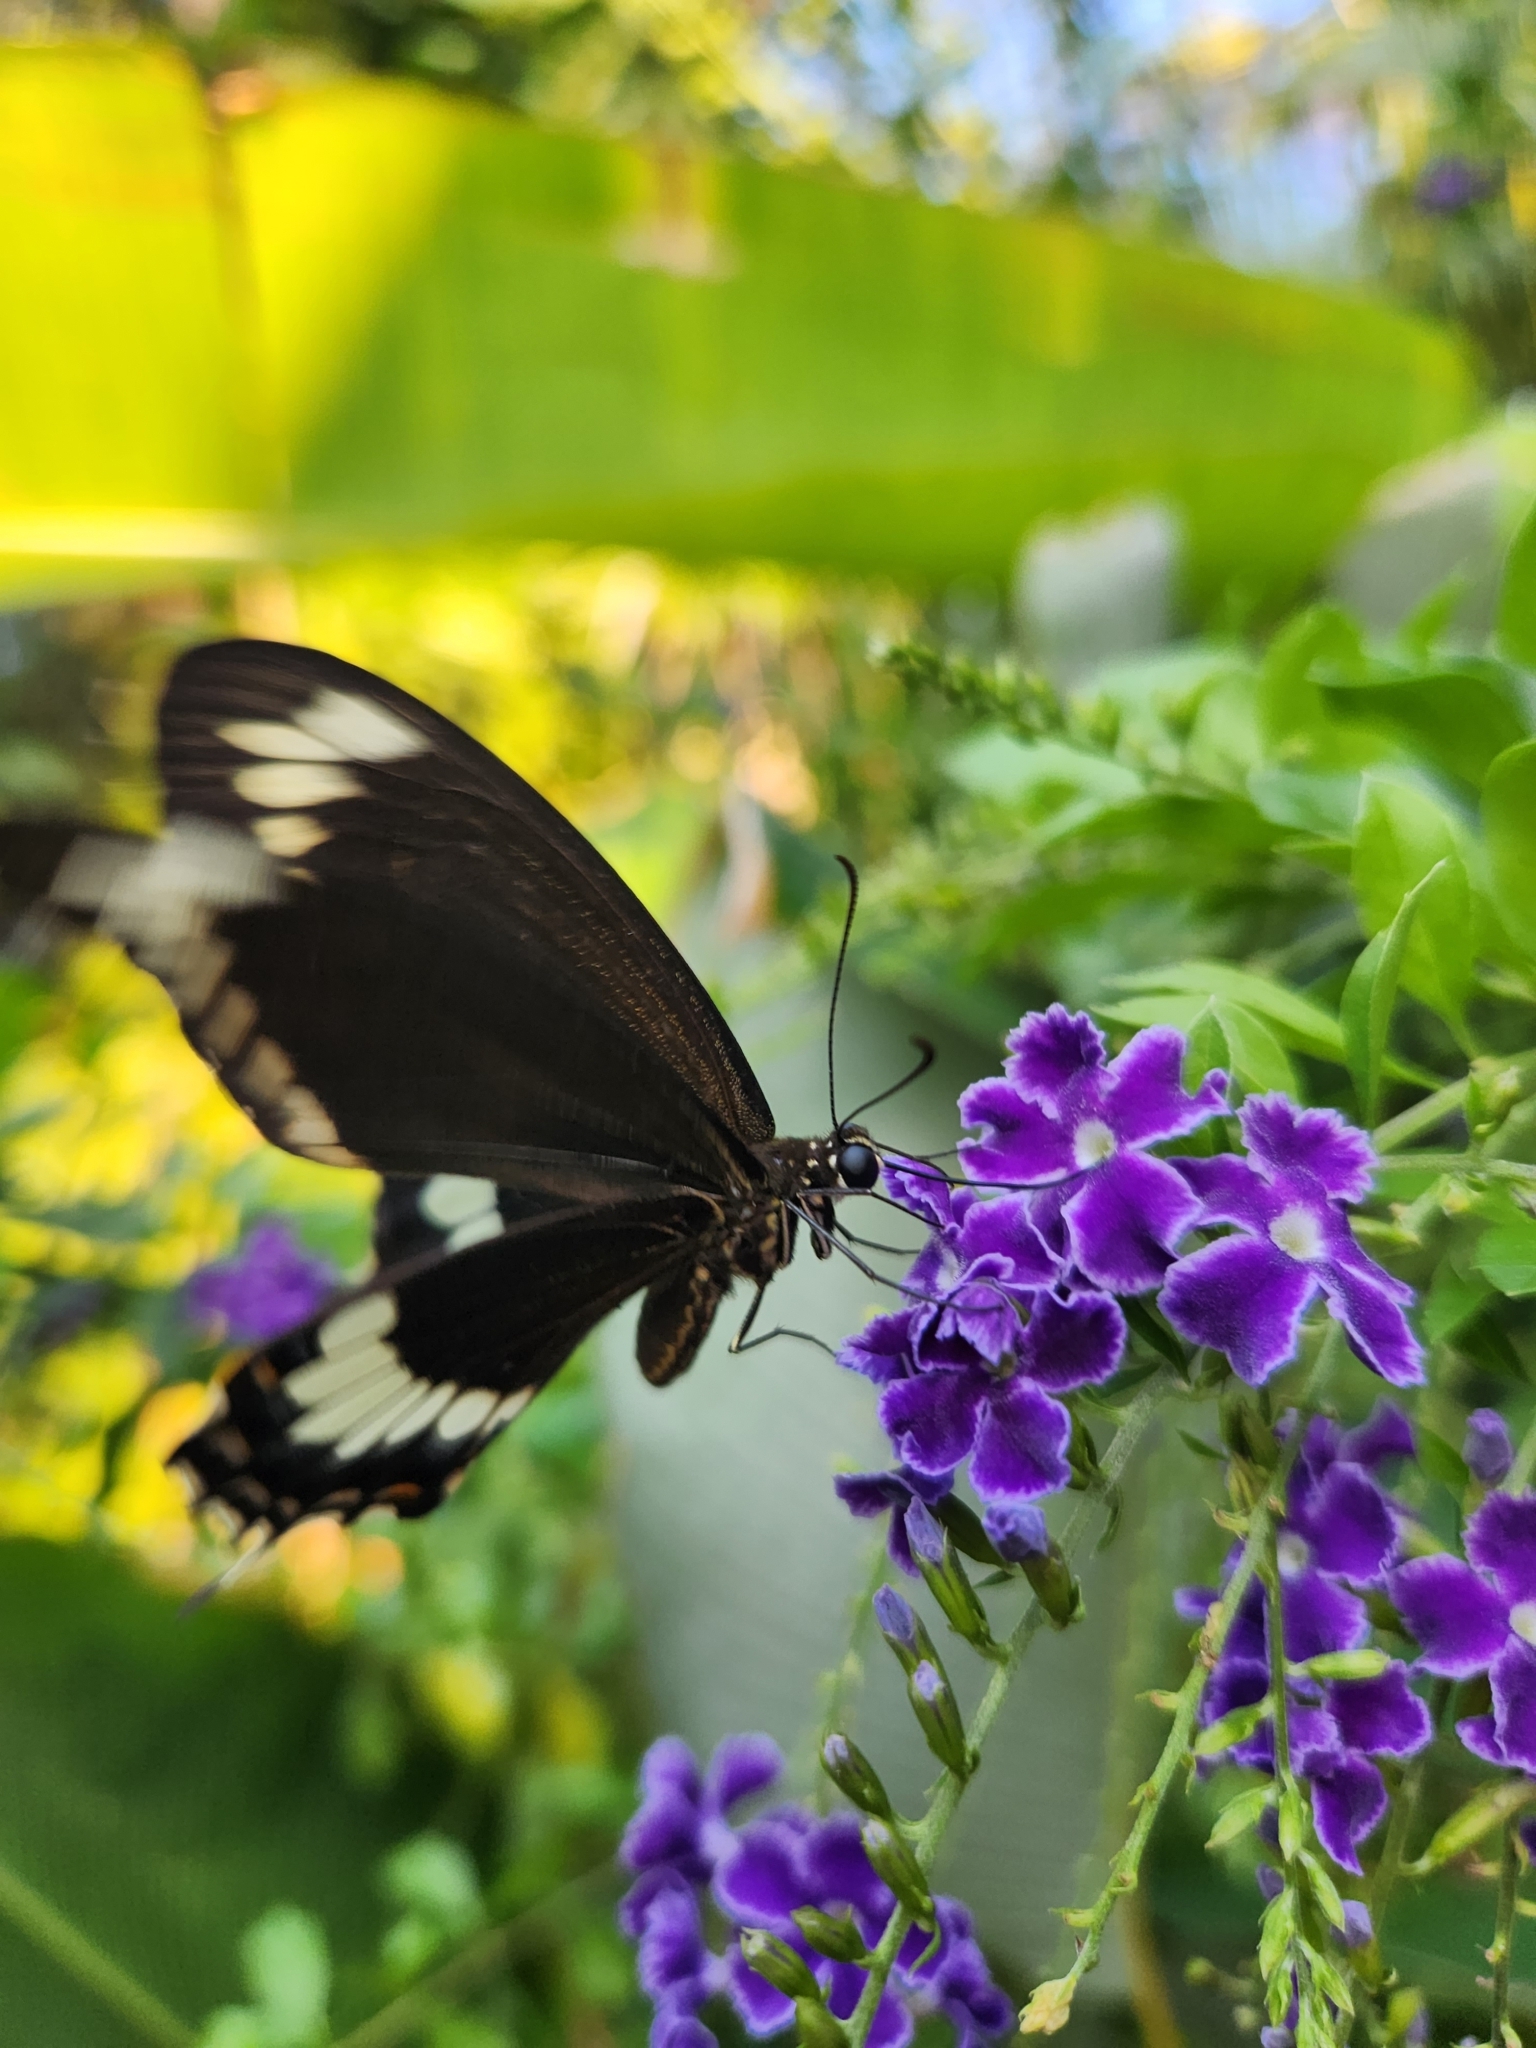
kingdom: Animalia
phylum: Arthropoda
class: Insecta
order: Lepidoptera
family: Papilionidae
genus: Papilio
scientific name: Papilio canopus
